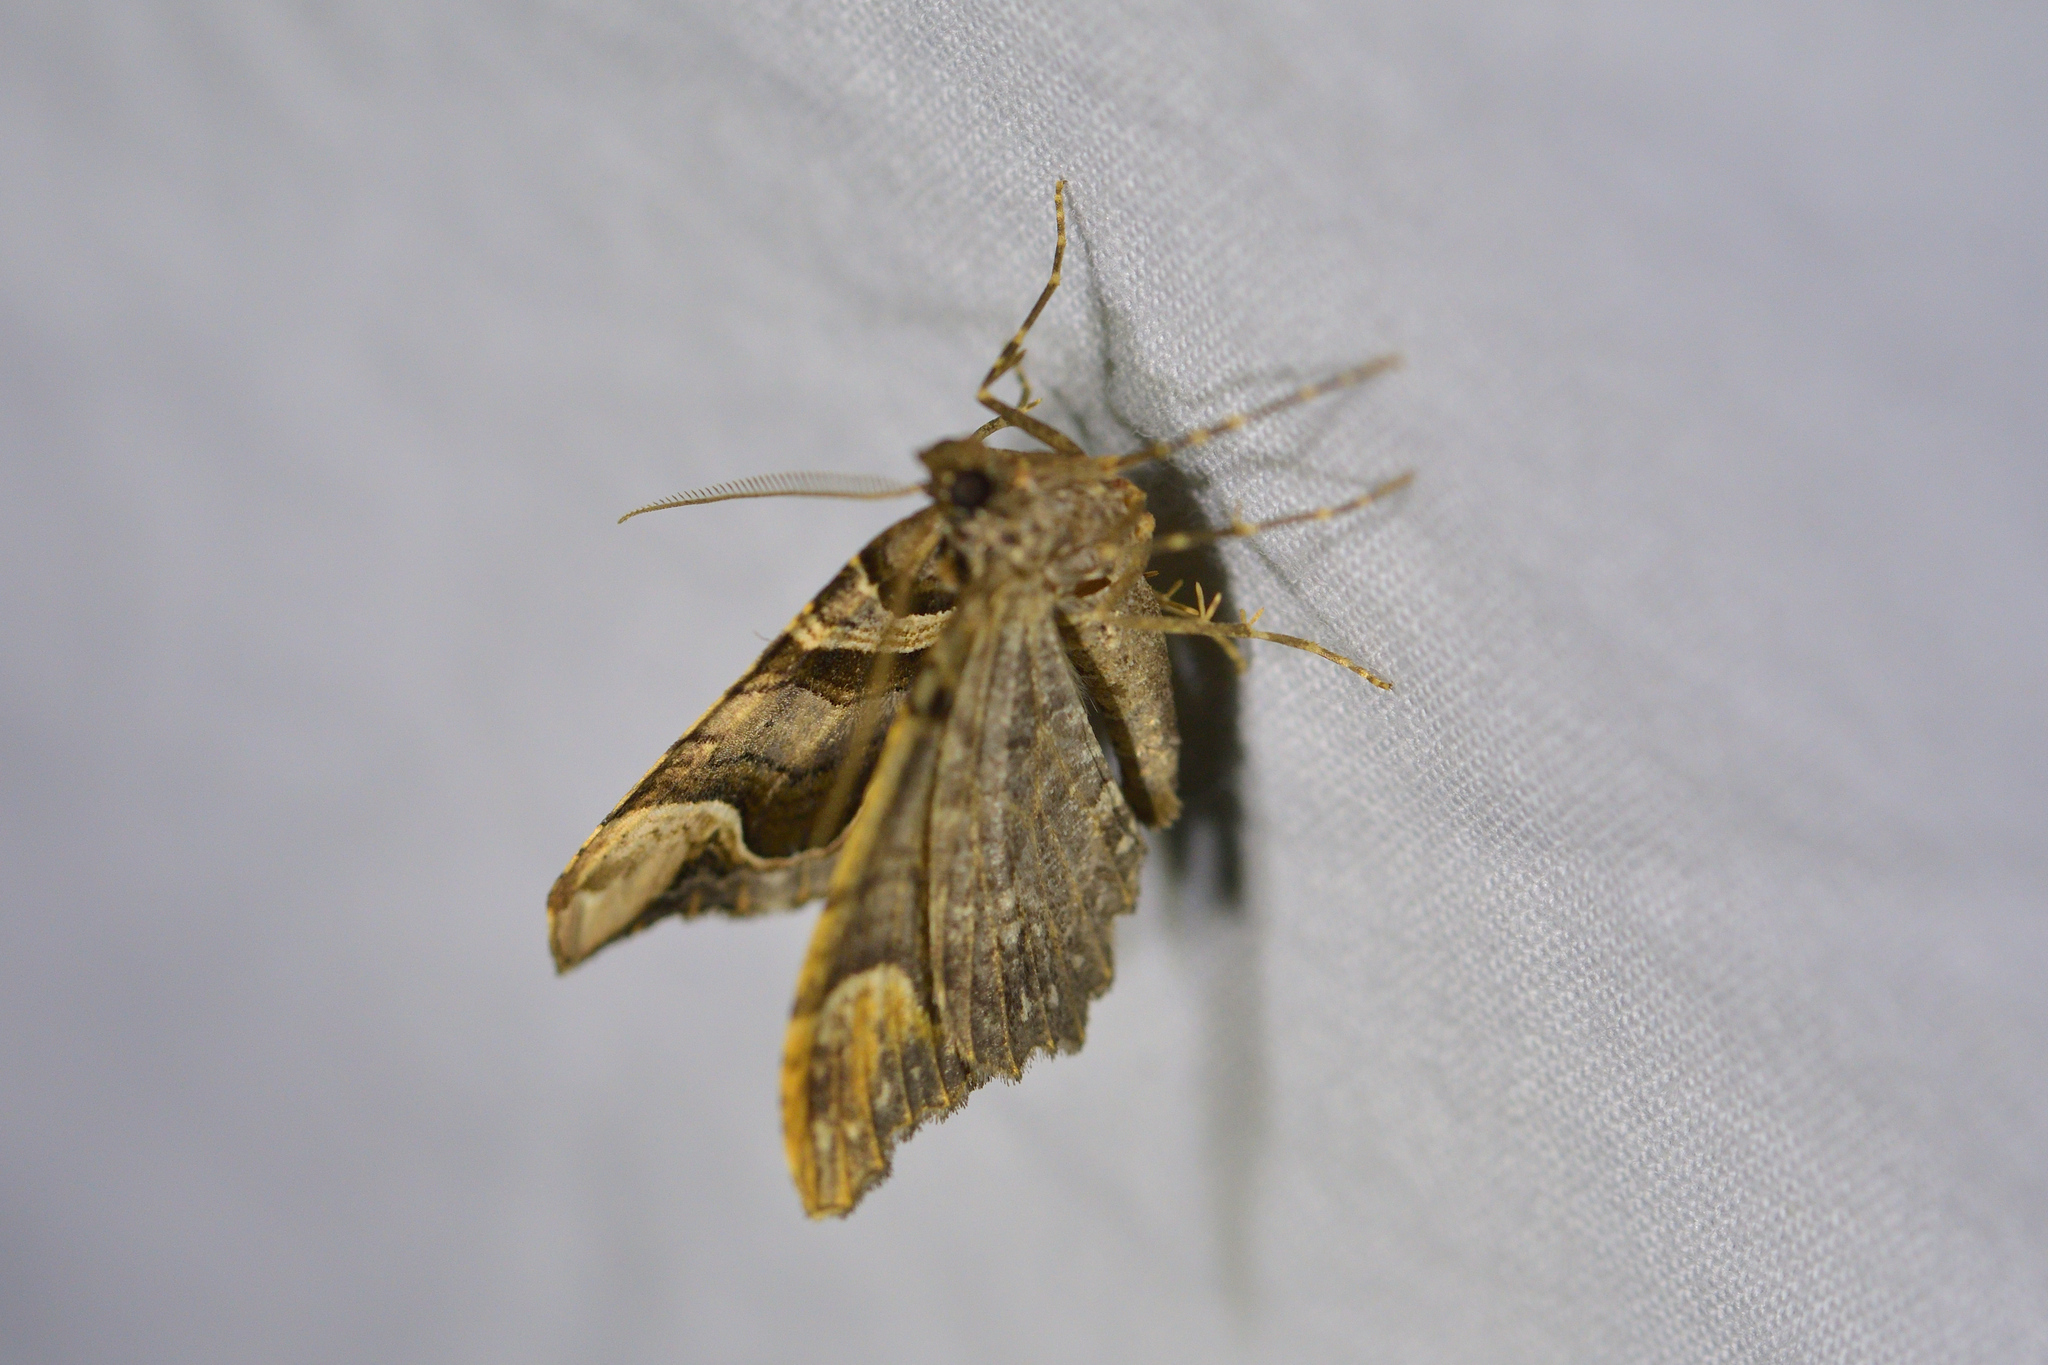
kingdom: Animalia
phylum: Arthropoda
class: Insecta
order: Lepidoptera
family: Geometridae
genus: Asaphodes
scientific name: Asaphodes chlamydota
